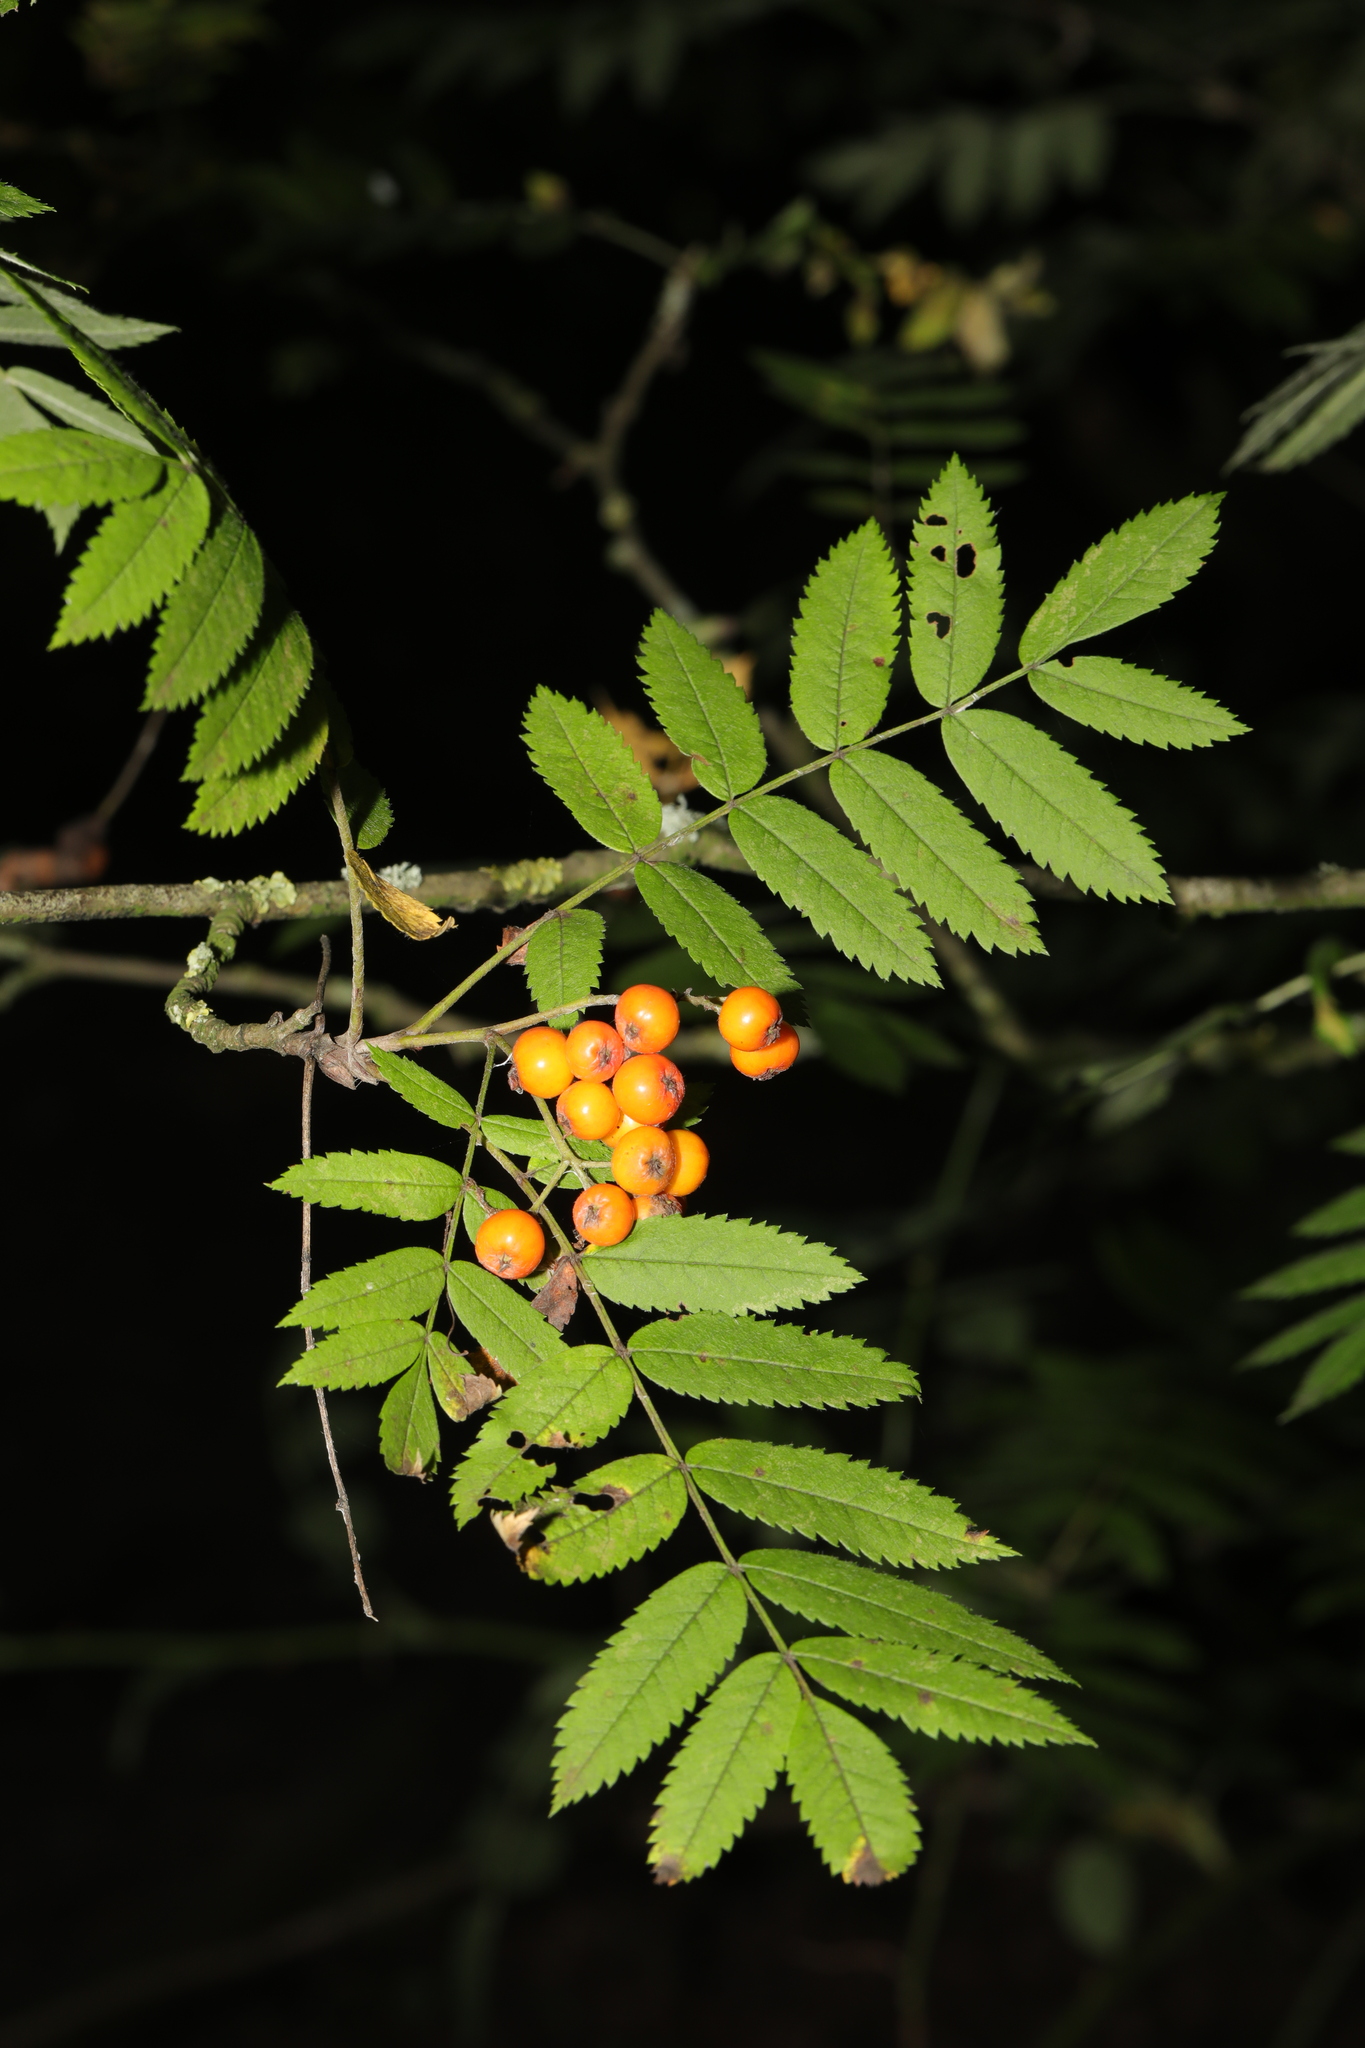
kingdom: Plantae
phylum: Tracheophyta
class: Magnoliopsida
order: Rosales
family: Rosaceae
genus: Sorbus
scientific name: Sorbus aucuparia
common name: Rowan
